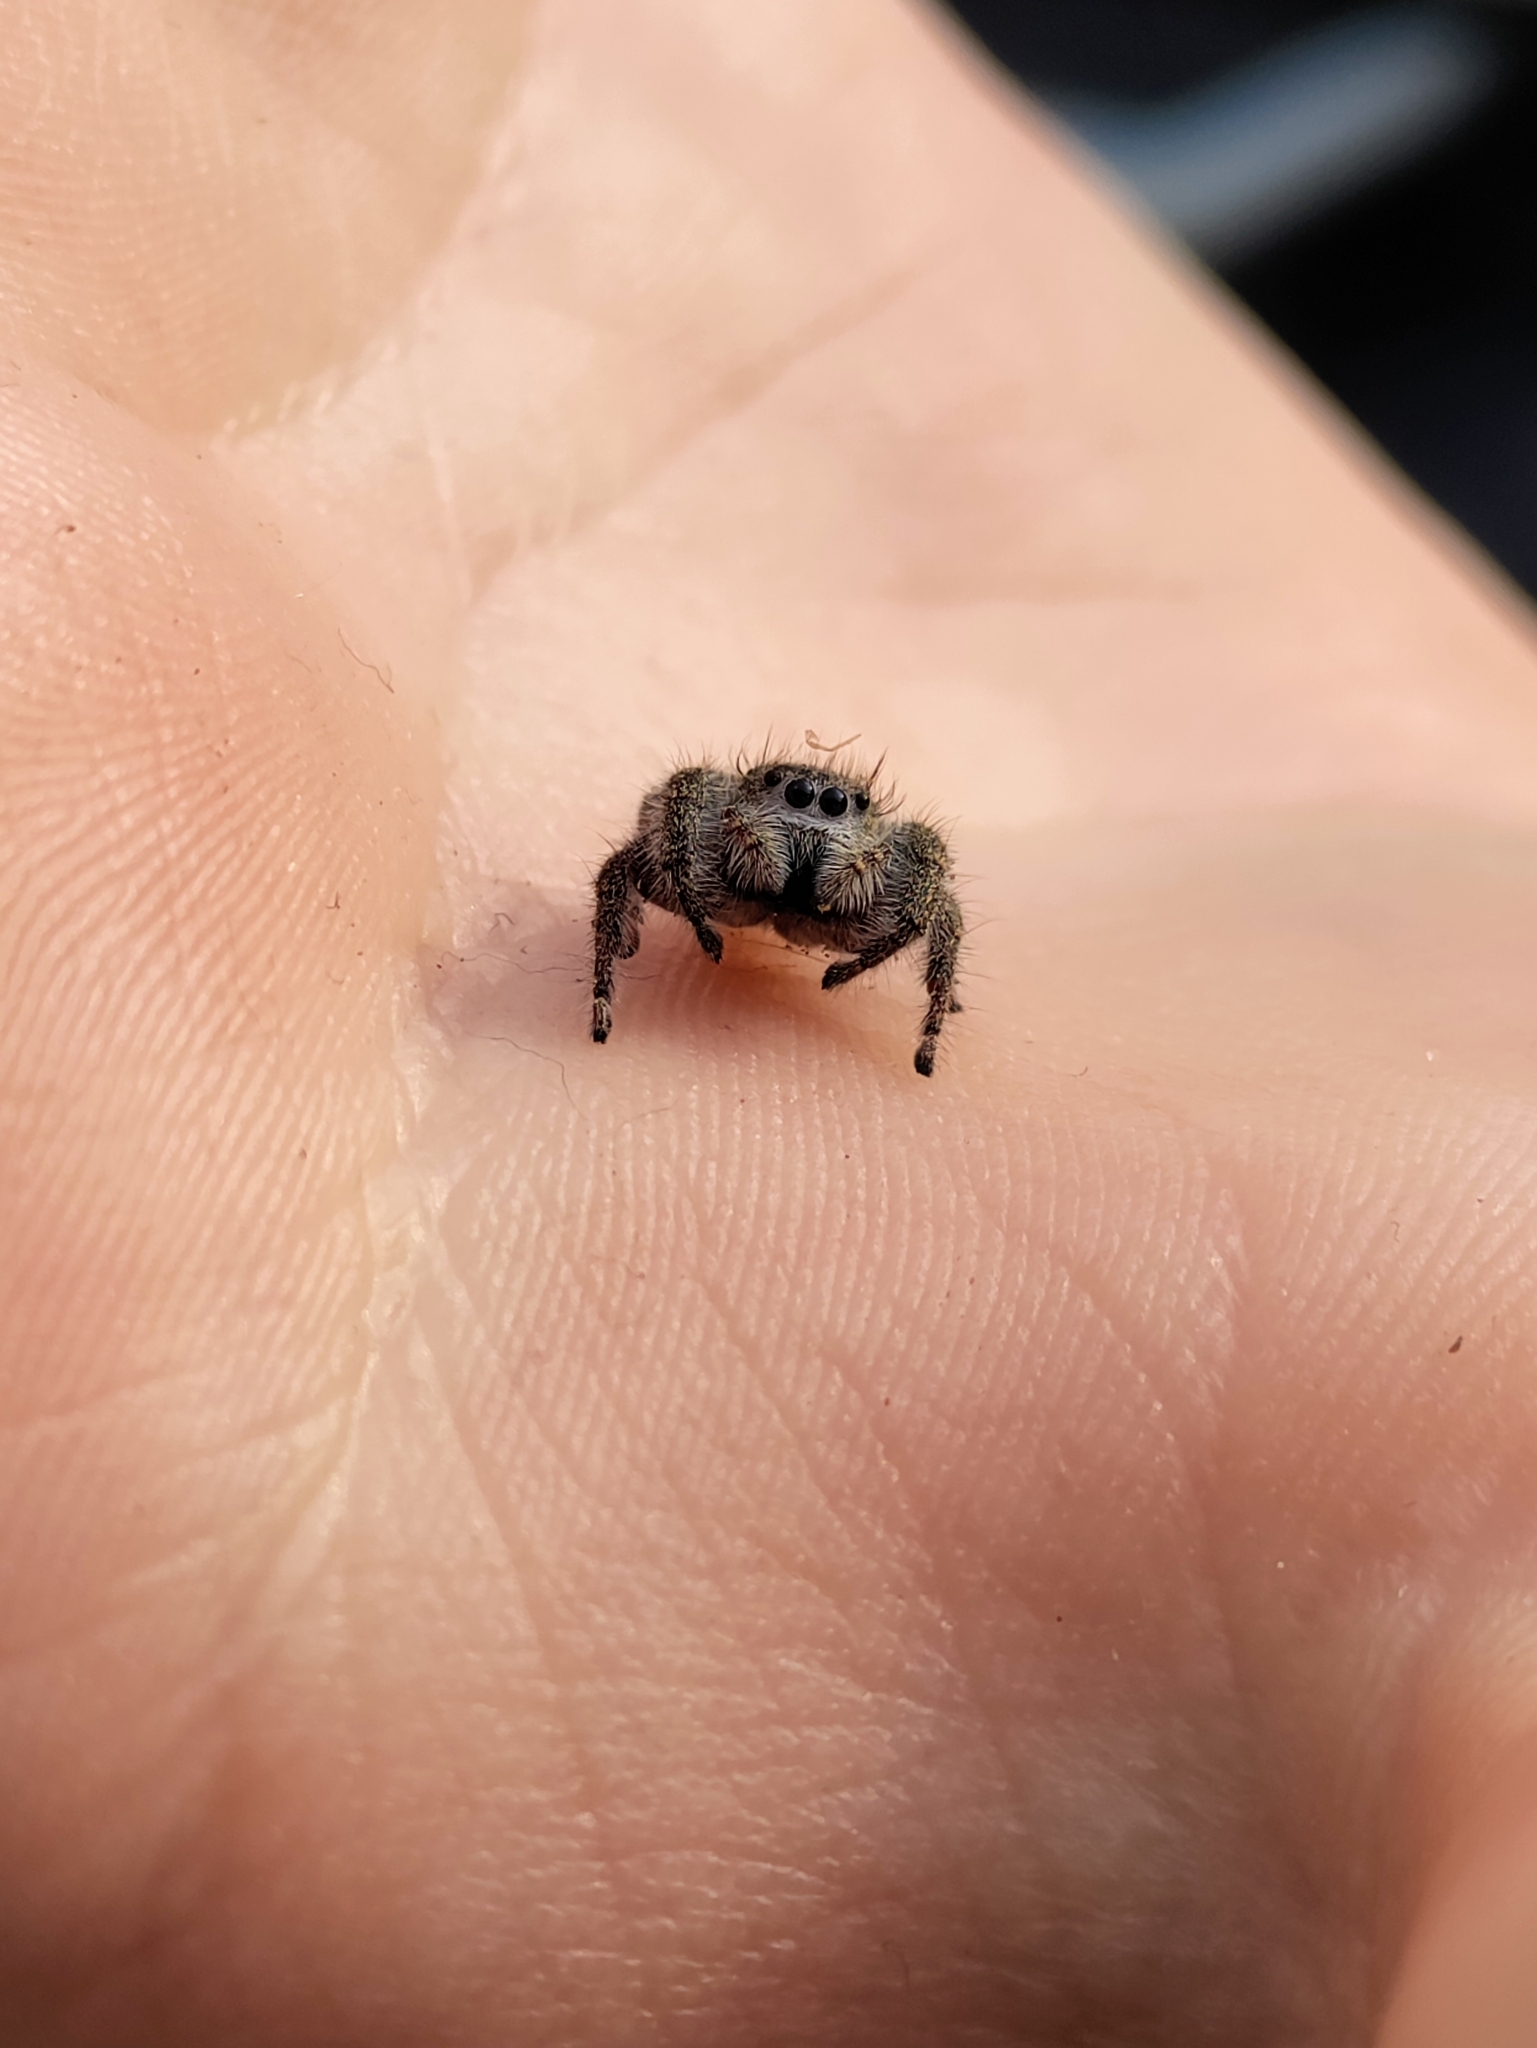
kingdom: Animalia
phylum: Arthropoda
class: Arachnida
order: Araneae
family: Salticidae
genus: Phidippus
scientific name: Phidippus princeps
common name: Grayish jumping spider
